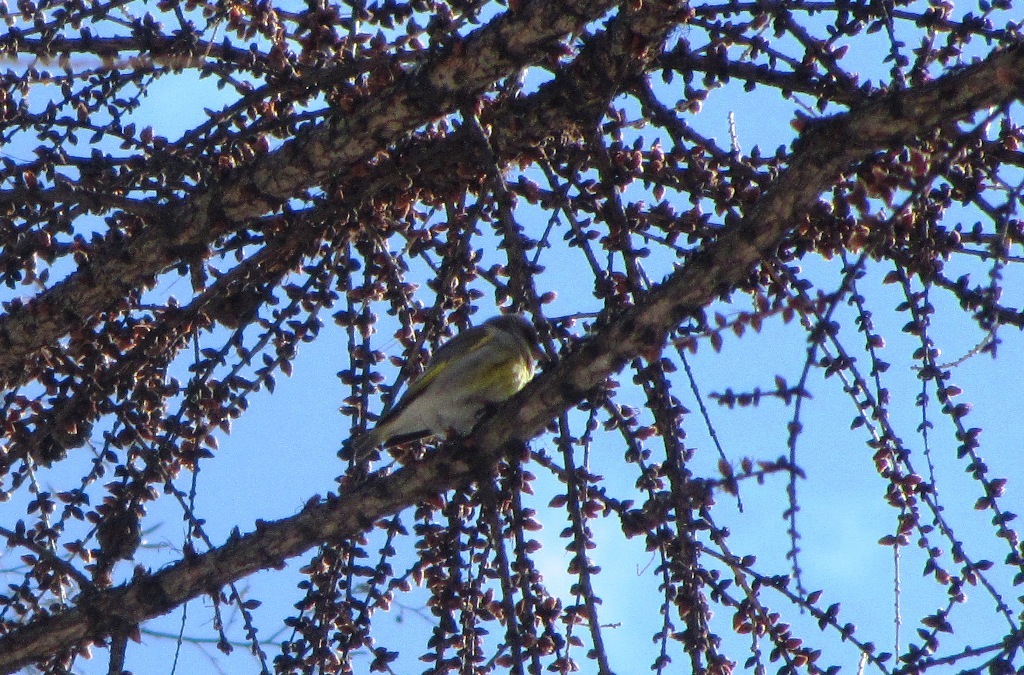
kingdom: Plantae
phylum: Tracheophyta
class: Liliopsida
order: Poales
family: Poaceae
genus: Chloris
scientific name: Chloris chloris
